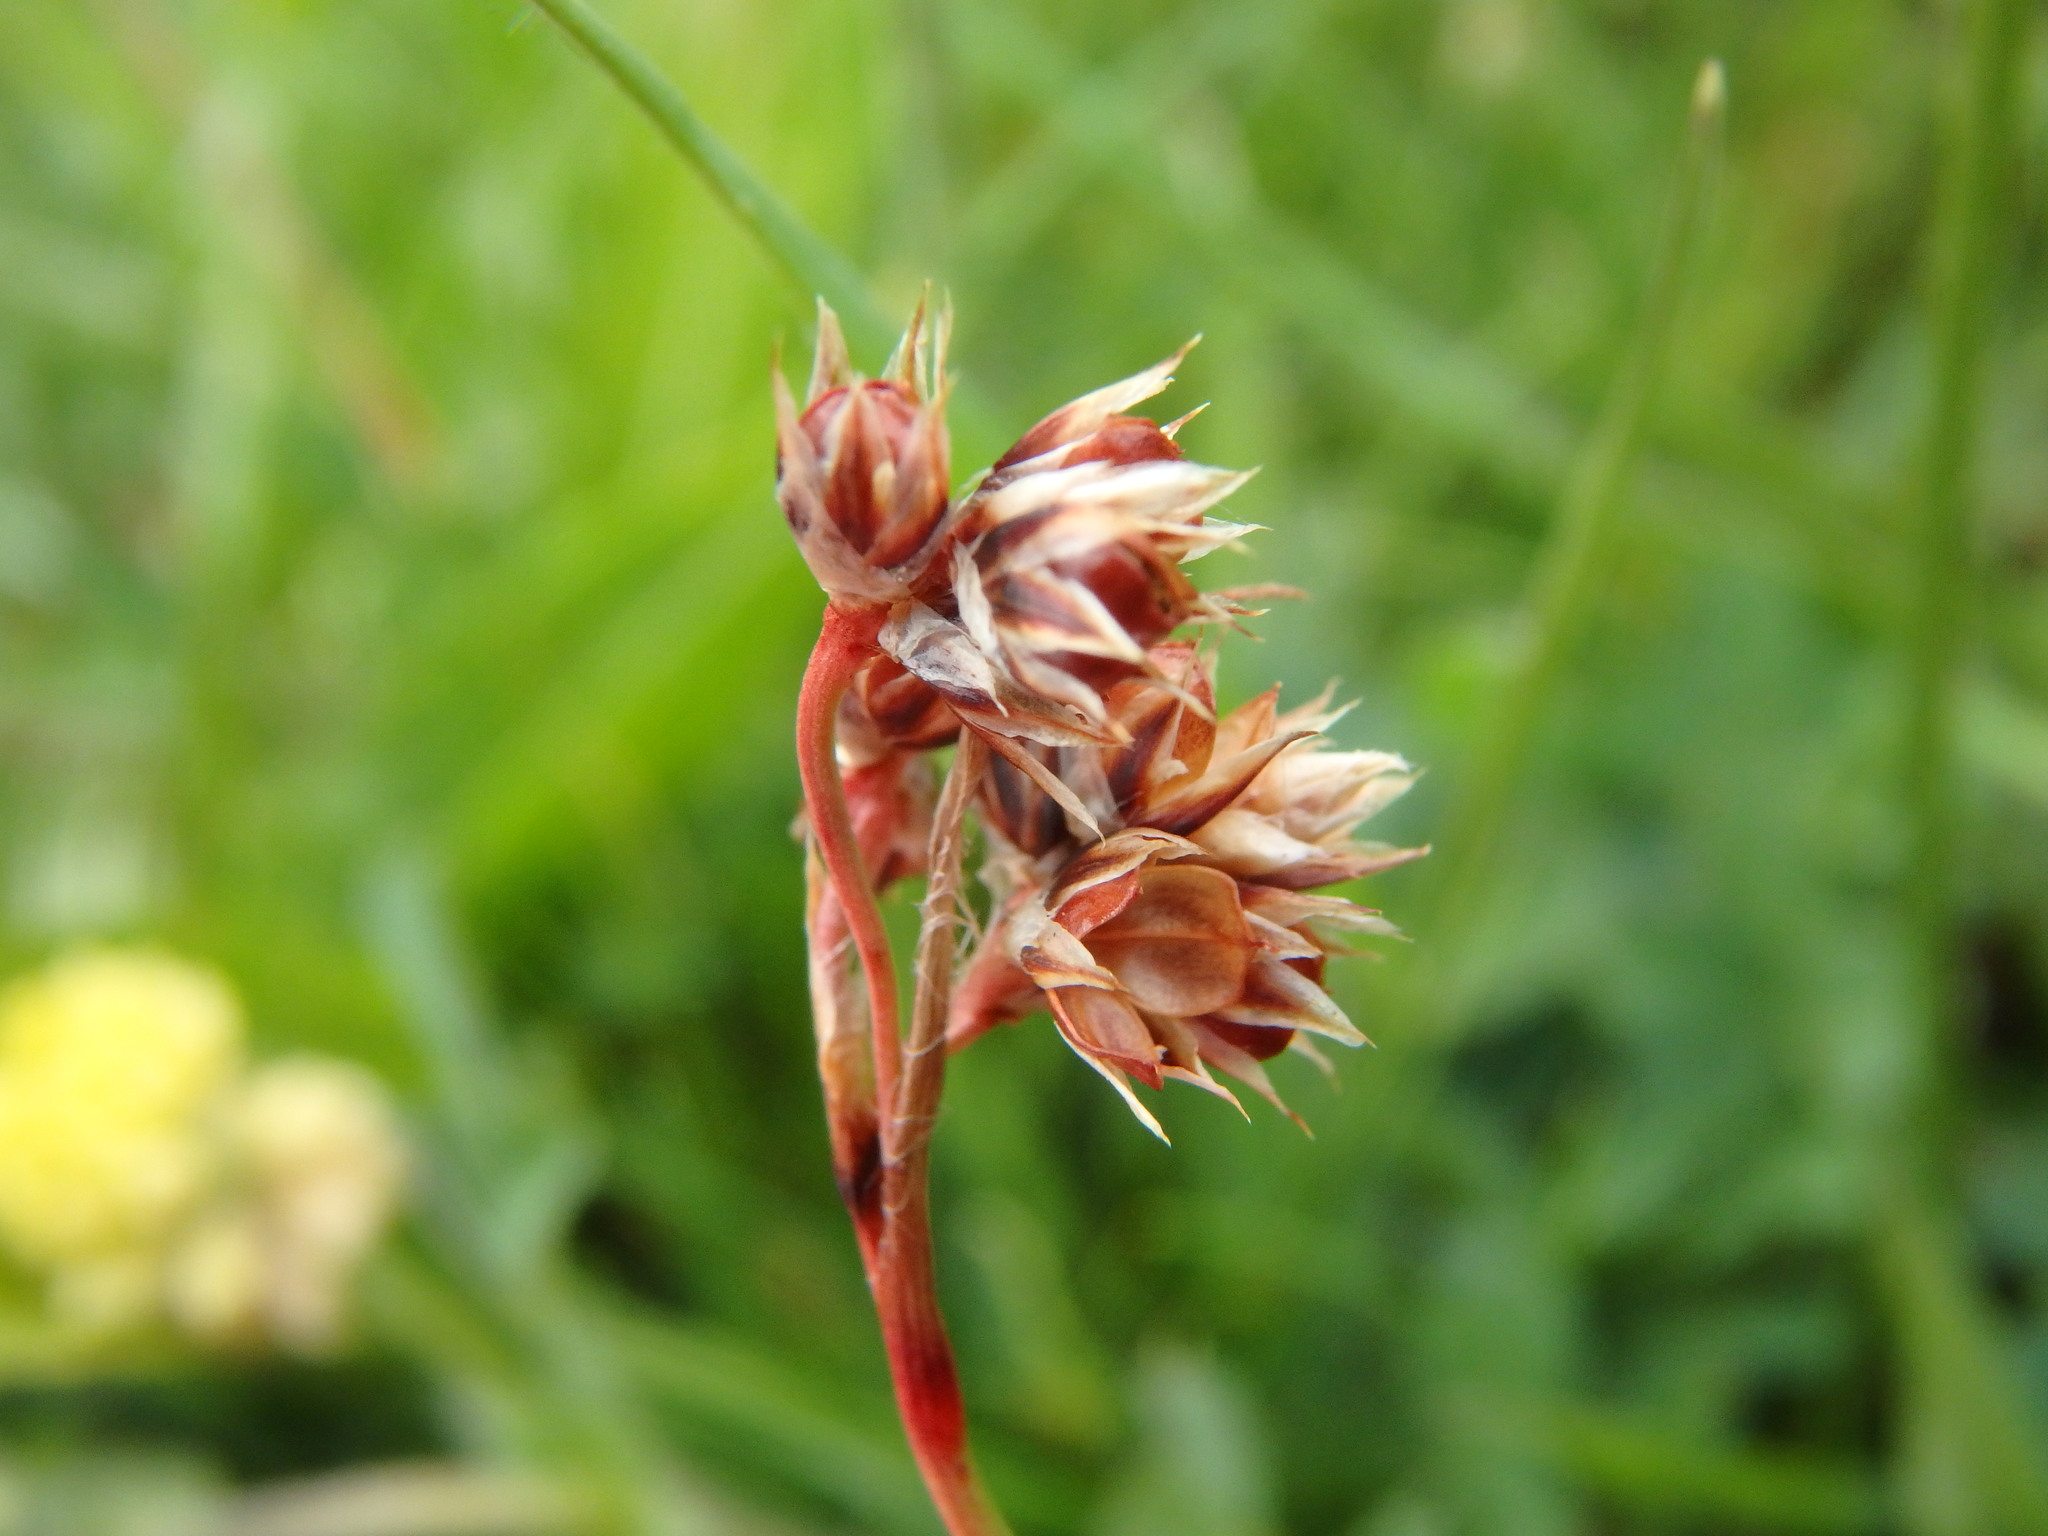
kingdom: Plantae
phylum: Tracheophyta
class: Liliopsida
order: Poales
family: Juncaceae
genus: Luzula
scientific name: Luzula campestris
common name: Field wood-rush
